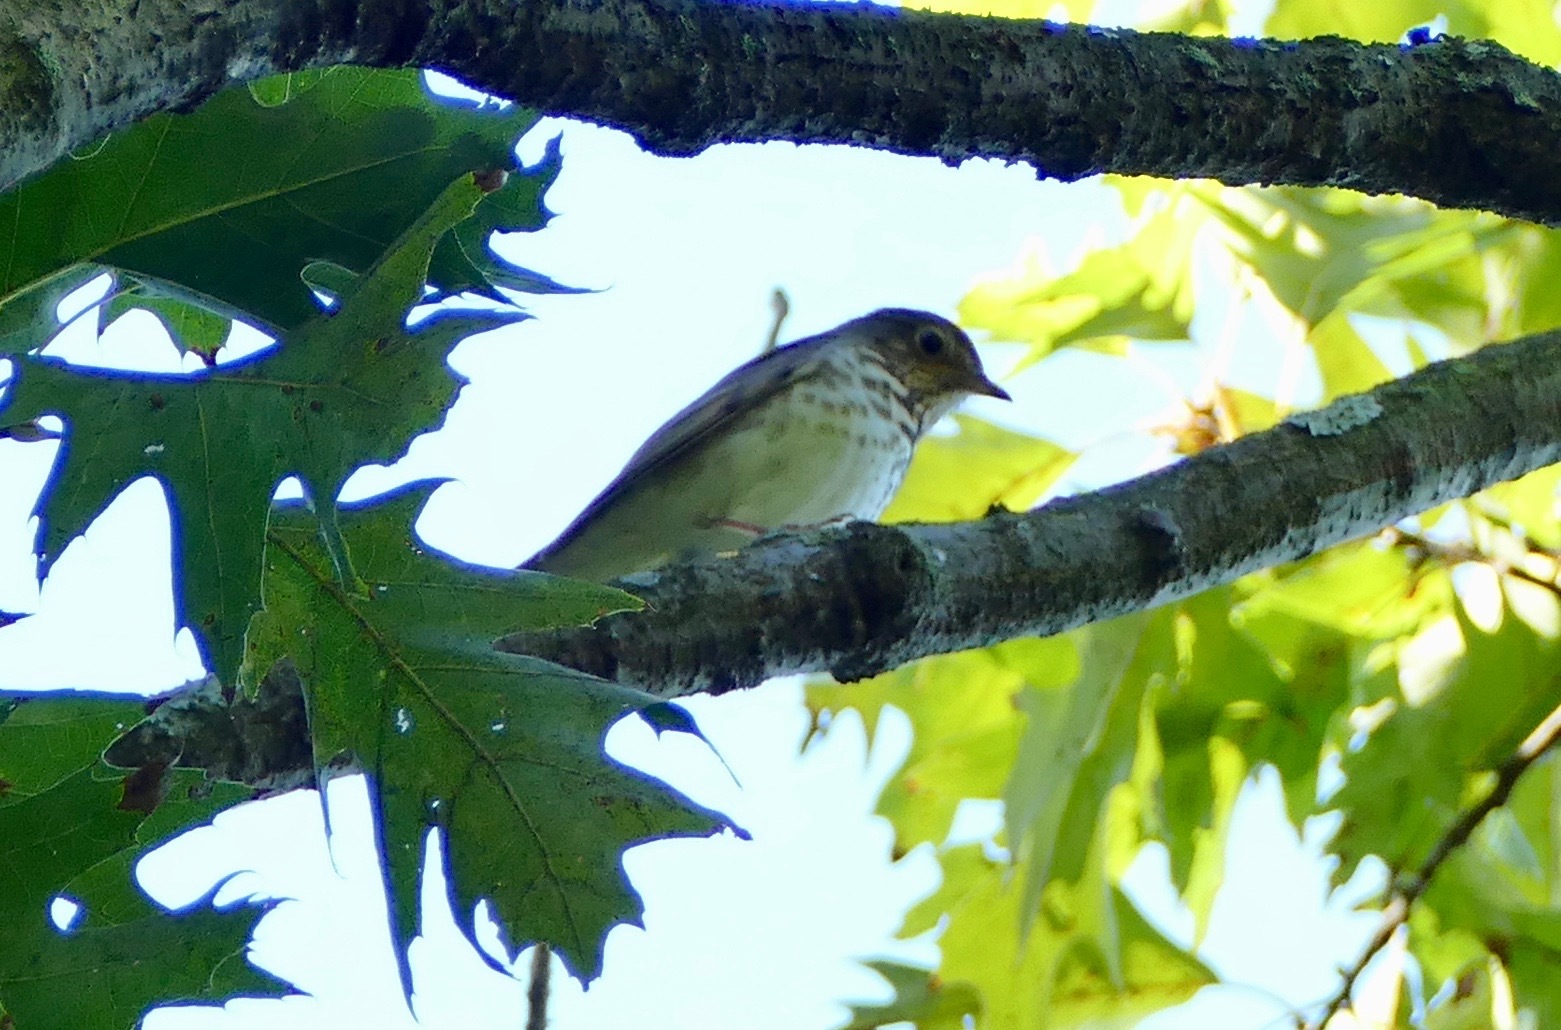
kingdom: Animalia
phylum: Chordata
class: Aves
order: Passeriformes
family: Turdidae
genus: Catharus
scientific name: Catharus ustulatus
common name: Swainson's thrush
